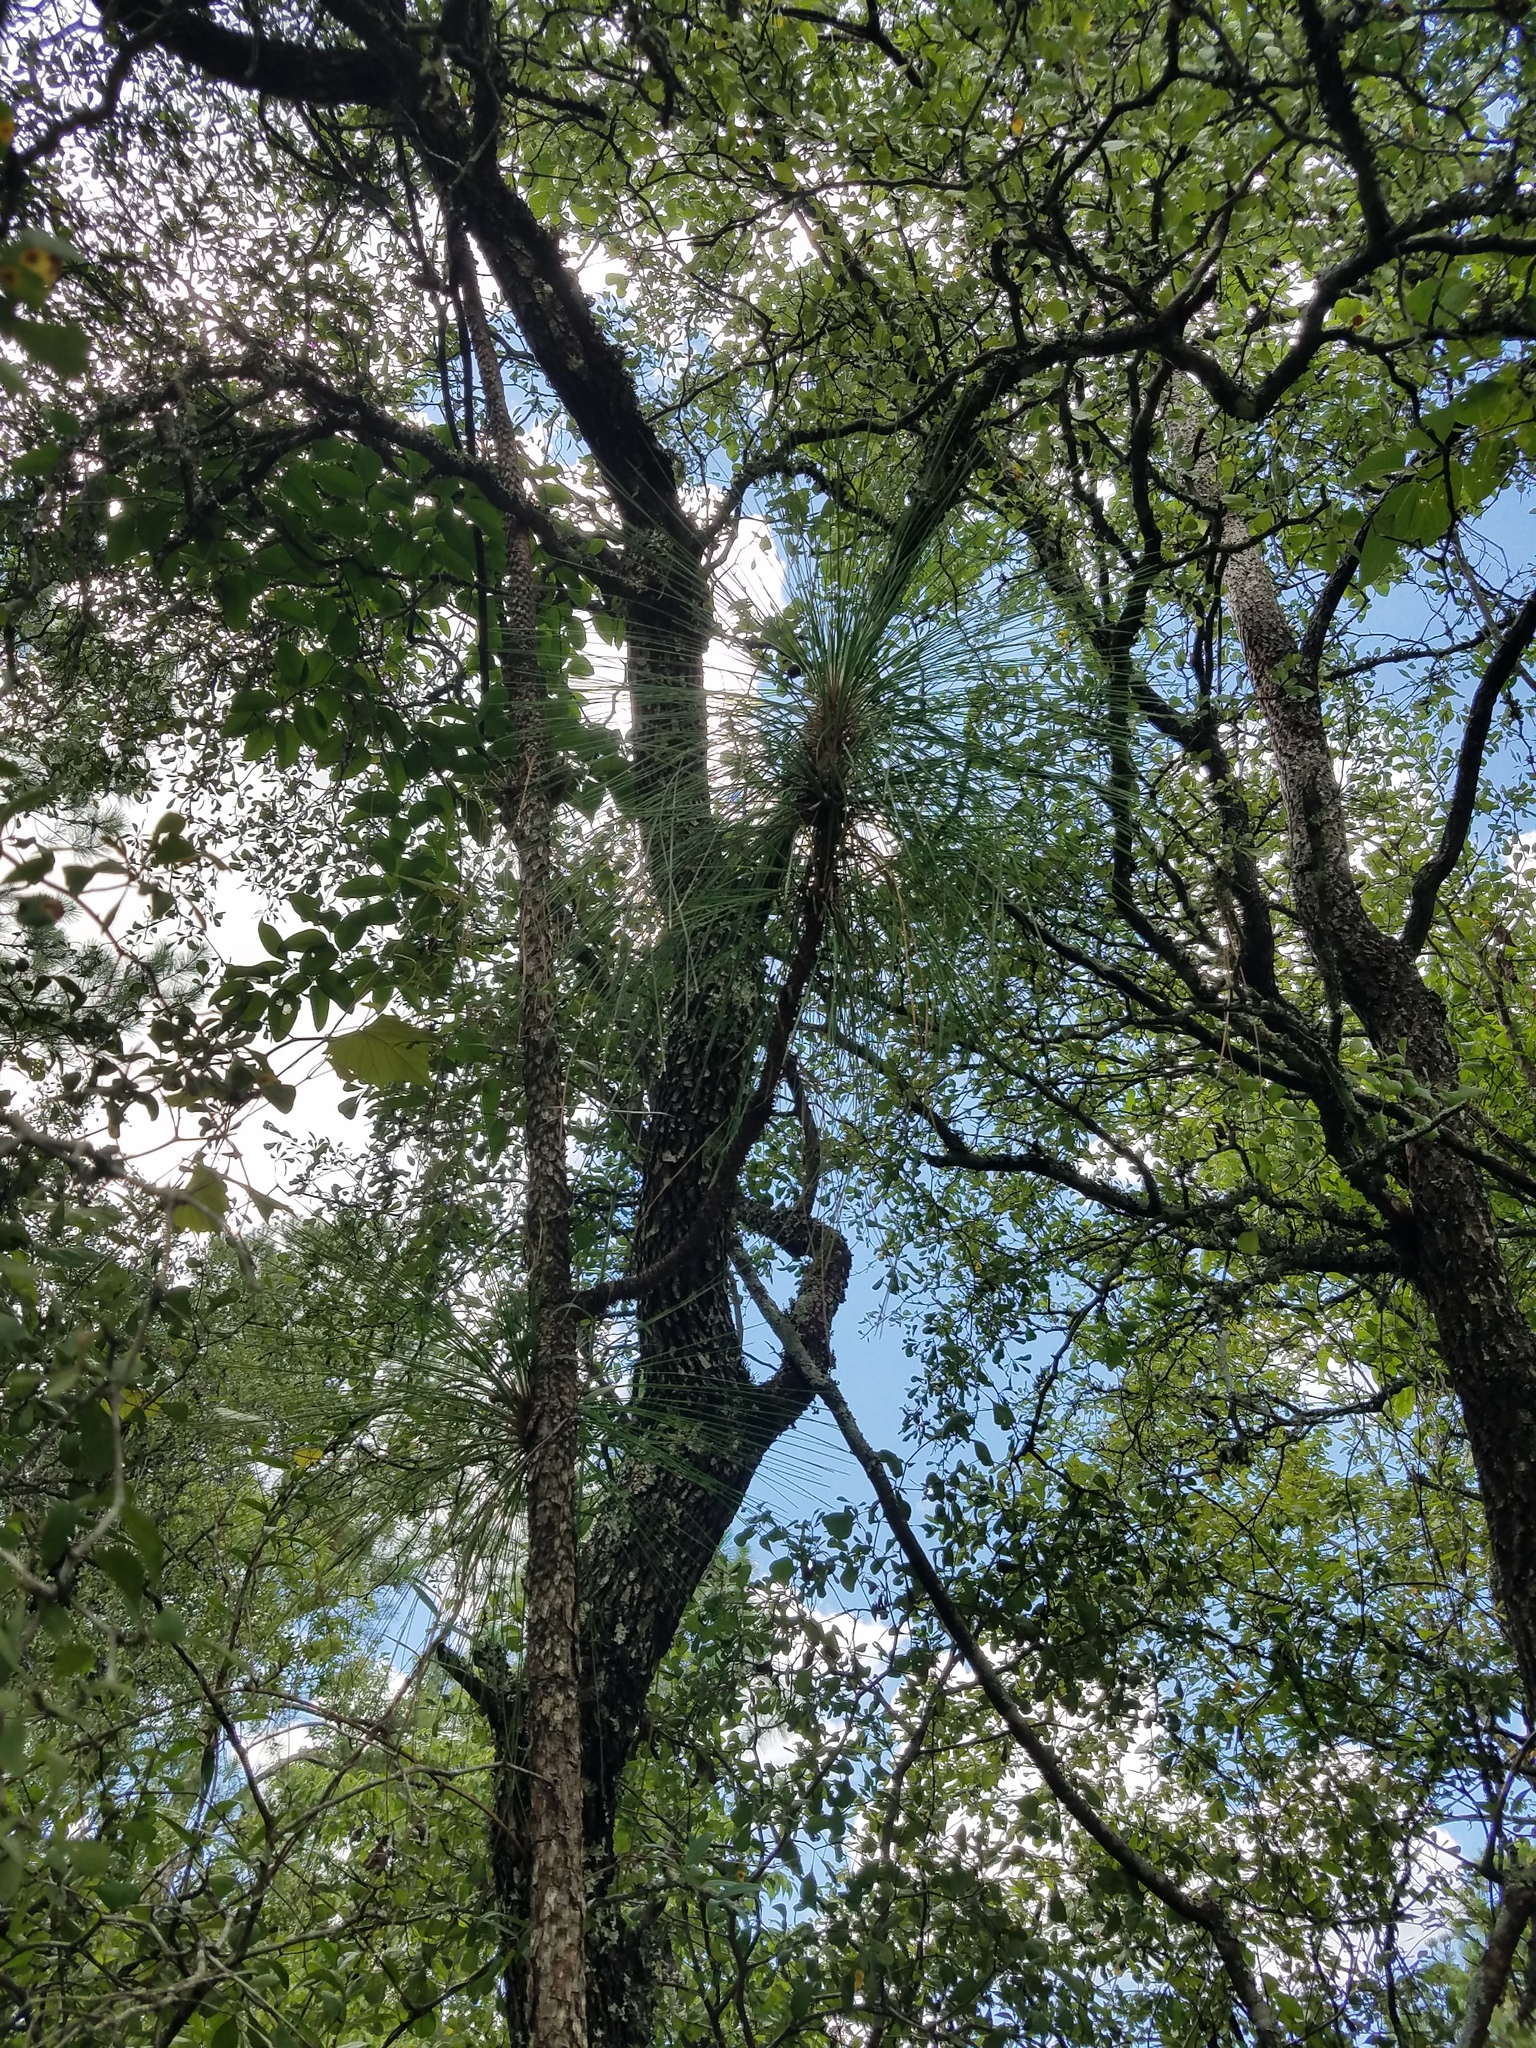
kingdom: Plantae
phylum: Tracheophyta
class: Pinopsida
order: Pinales
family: Pinaceae
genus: Pinus
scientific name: Pinus palustris
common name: Longleaf pine
